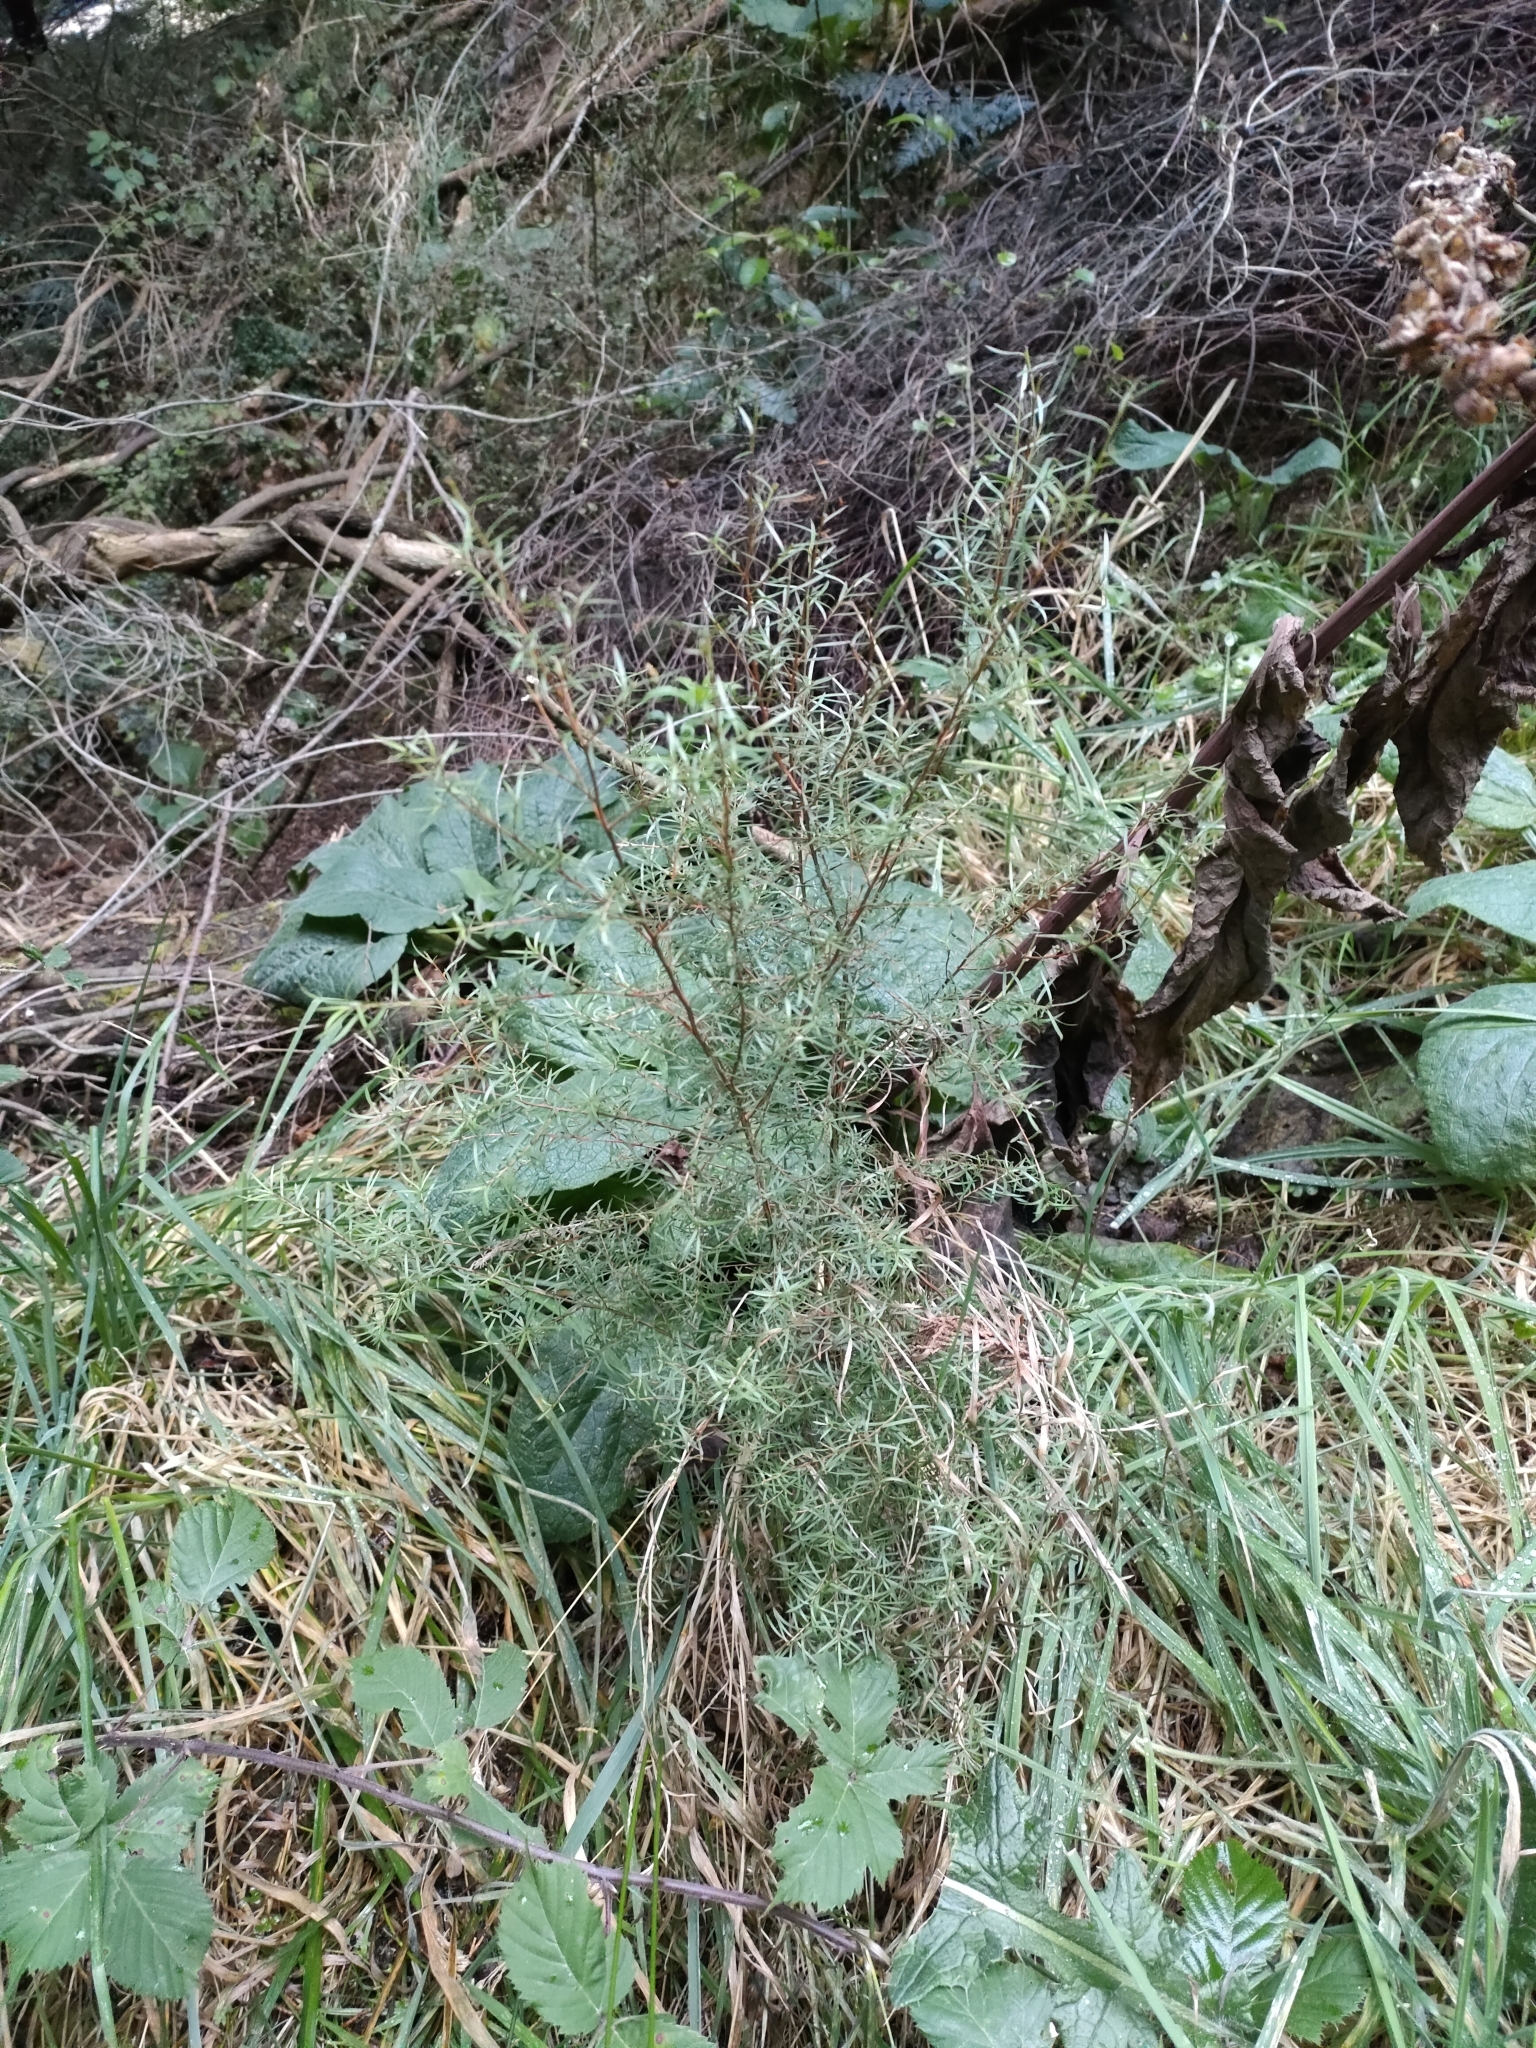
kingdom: Plantae
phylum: Tracheophyta
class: Magnoliopsida
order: Myrtales
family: Myrtaceae
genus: Kunzea
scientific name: Kunzea robusta
